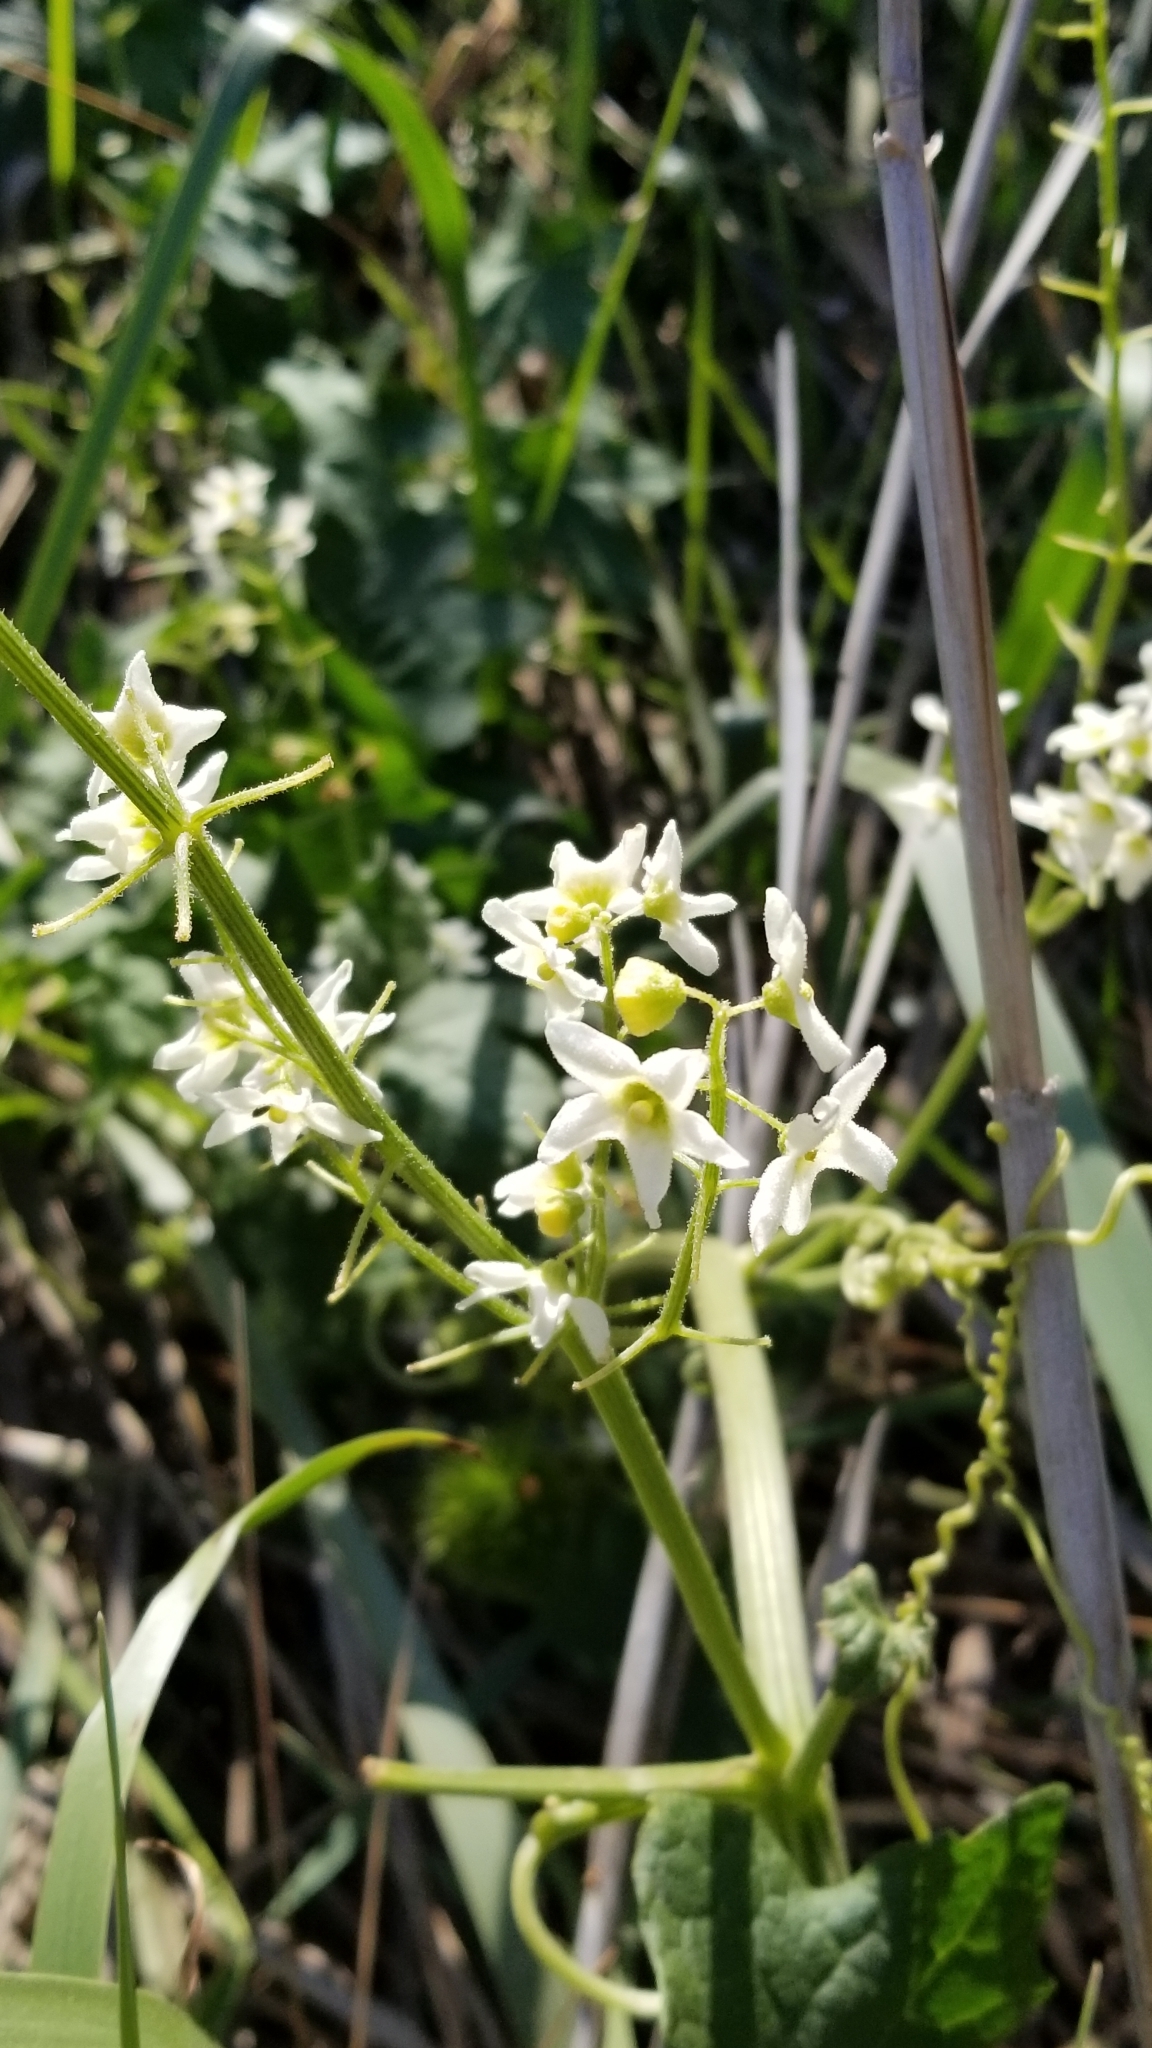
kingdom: Plantae
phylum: Tracheophyta
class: Magnoliopsida
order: Cucurbitales
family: Cucurbitaceae
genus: Marah
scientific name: Marah macrocarpa
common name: Cucamonga manroot
